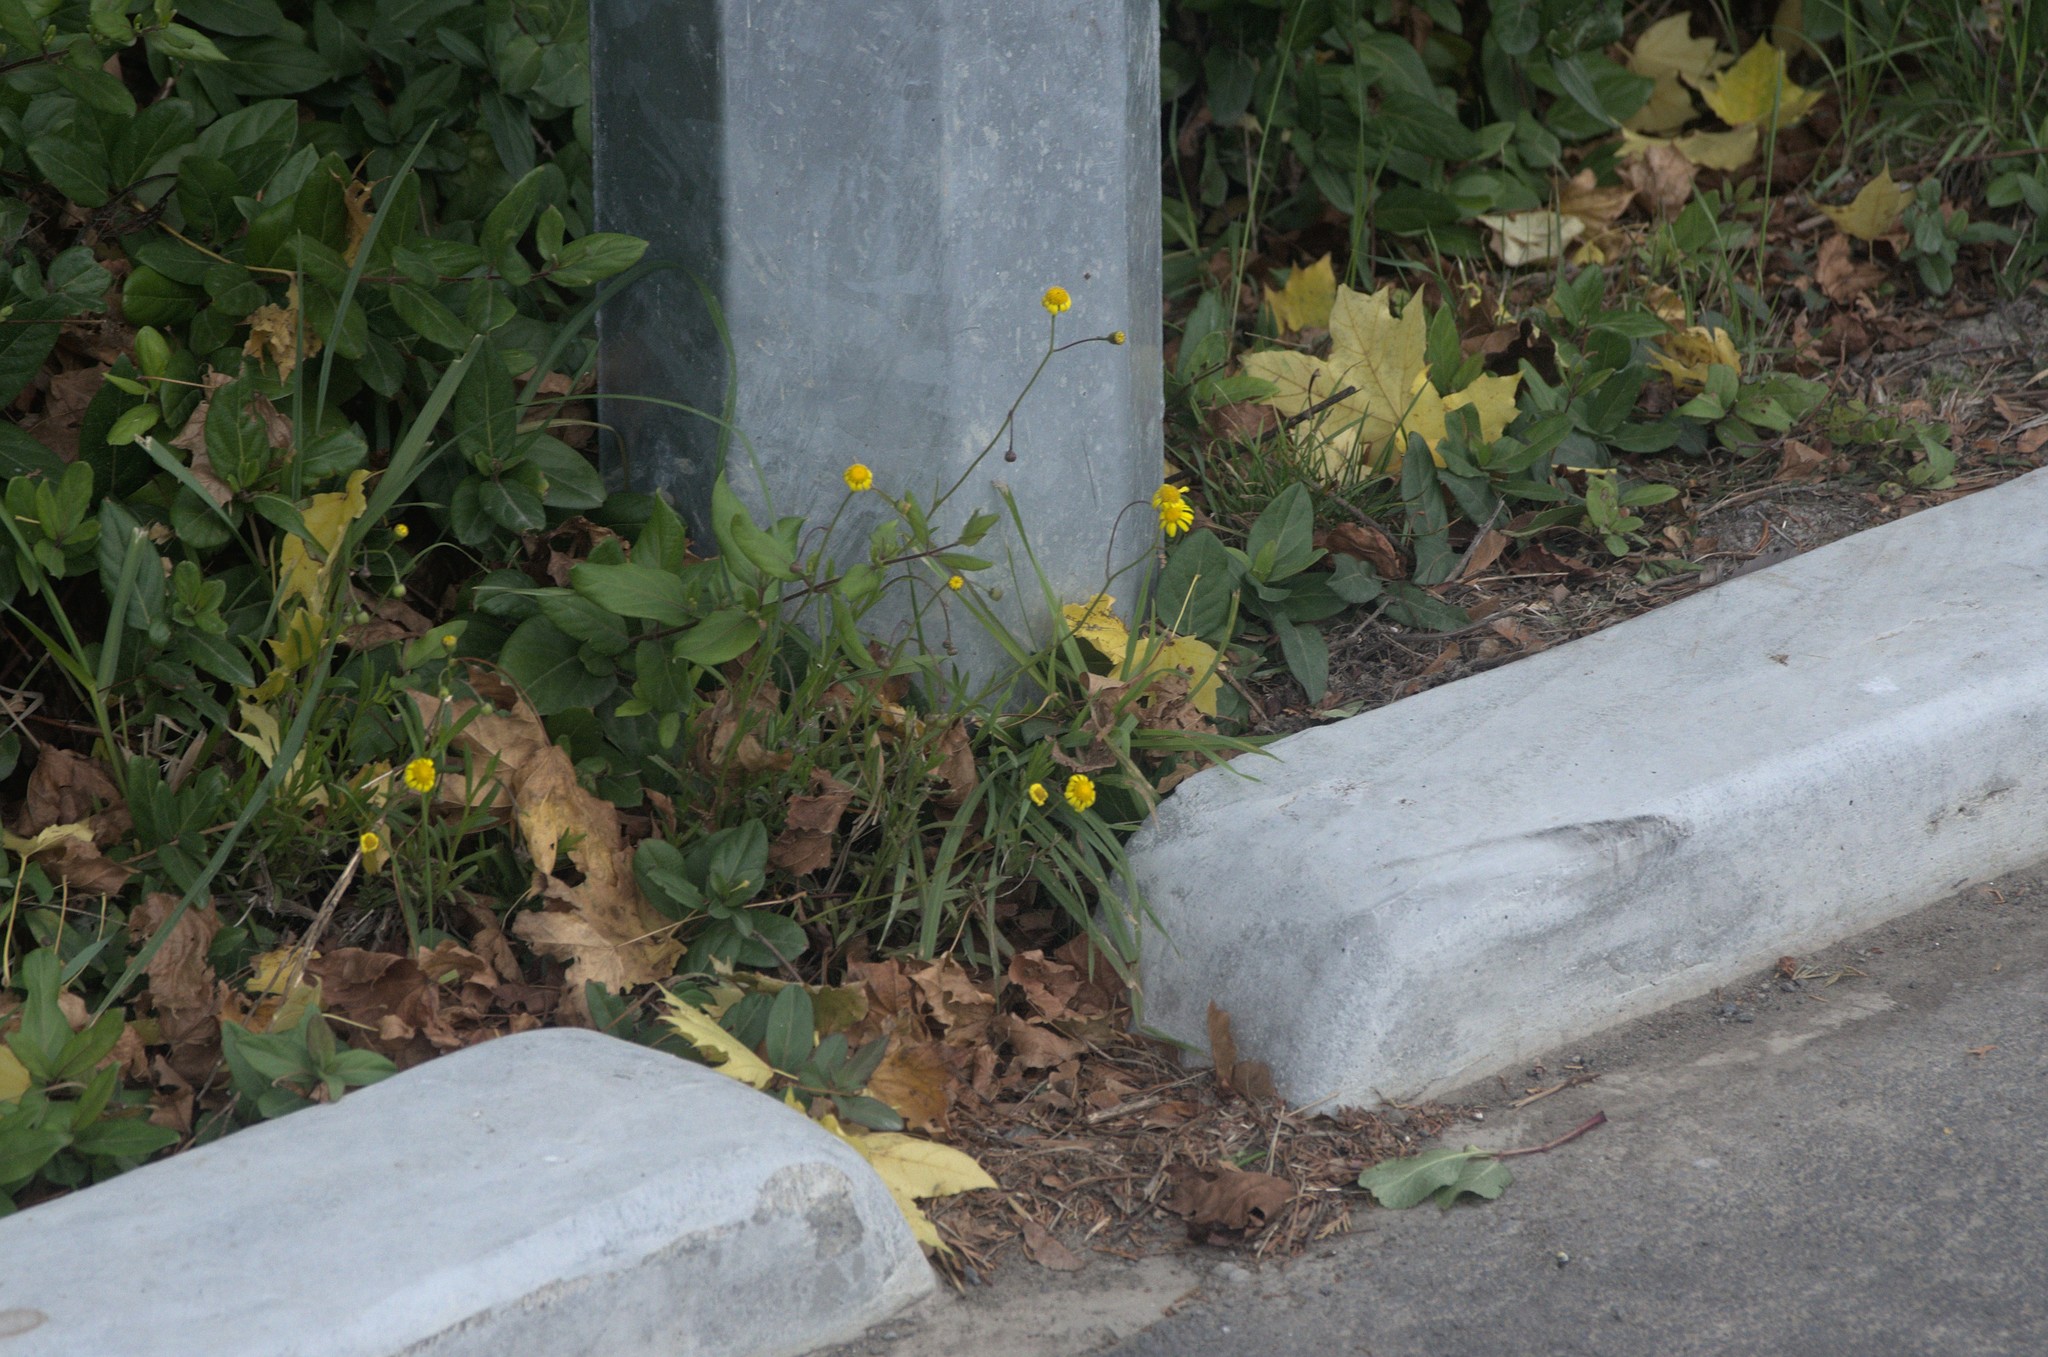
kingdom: Plantae
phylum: Tracheophyta
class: Magnoliopsida
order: Asterales
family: Asteraceae
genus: Senecio
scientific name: Senecio skirrhodon
